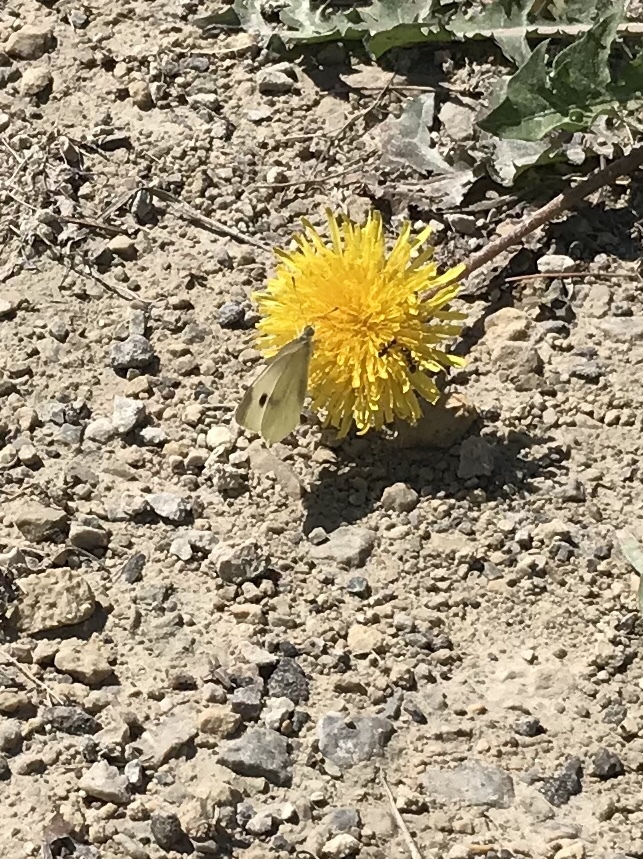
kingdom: Animalia
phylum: Arthropoda
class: Insecta
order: Lepidoptera
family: Pieridae
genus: Pieris
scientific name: Pieris rapae
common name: Small white
